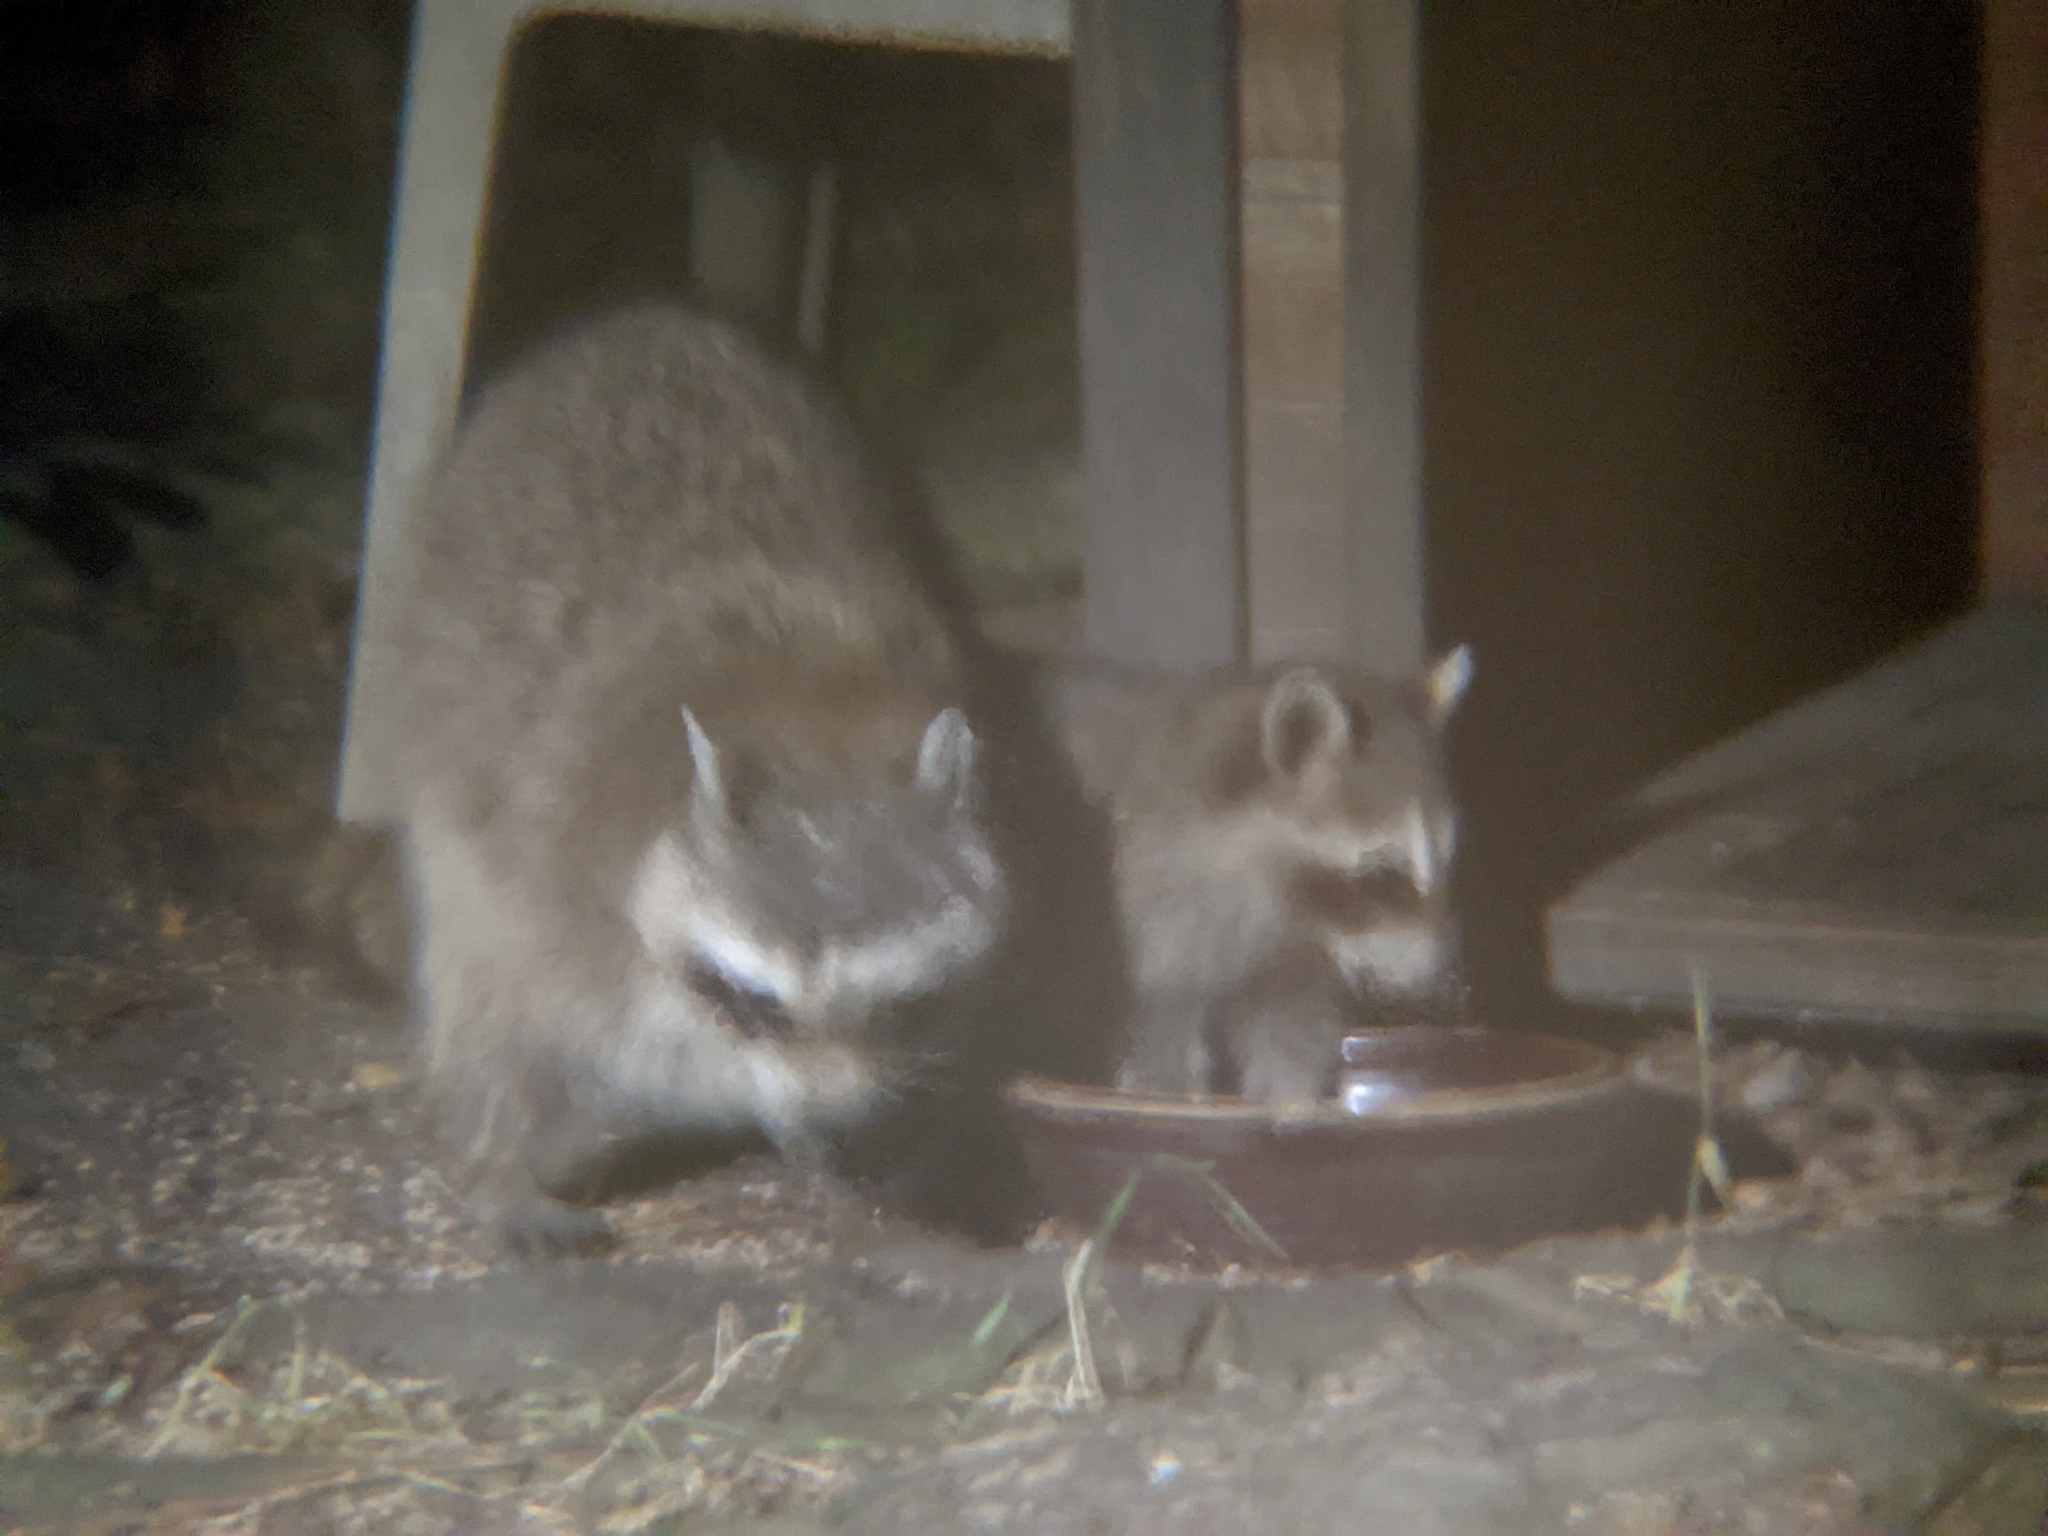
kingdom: Animalia
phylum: Chordata
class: Mammalia
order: Carnivora
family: Procyonidae
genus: Procyon
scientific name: Procyon lotor
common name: Raccoon
